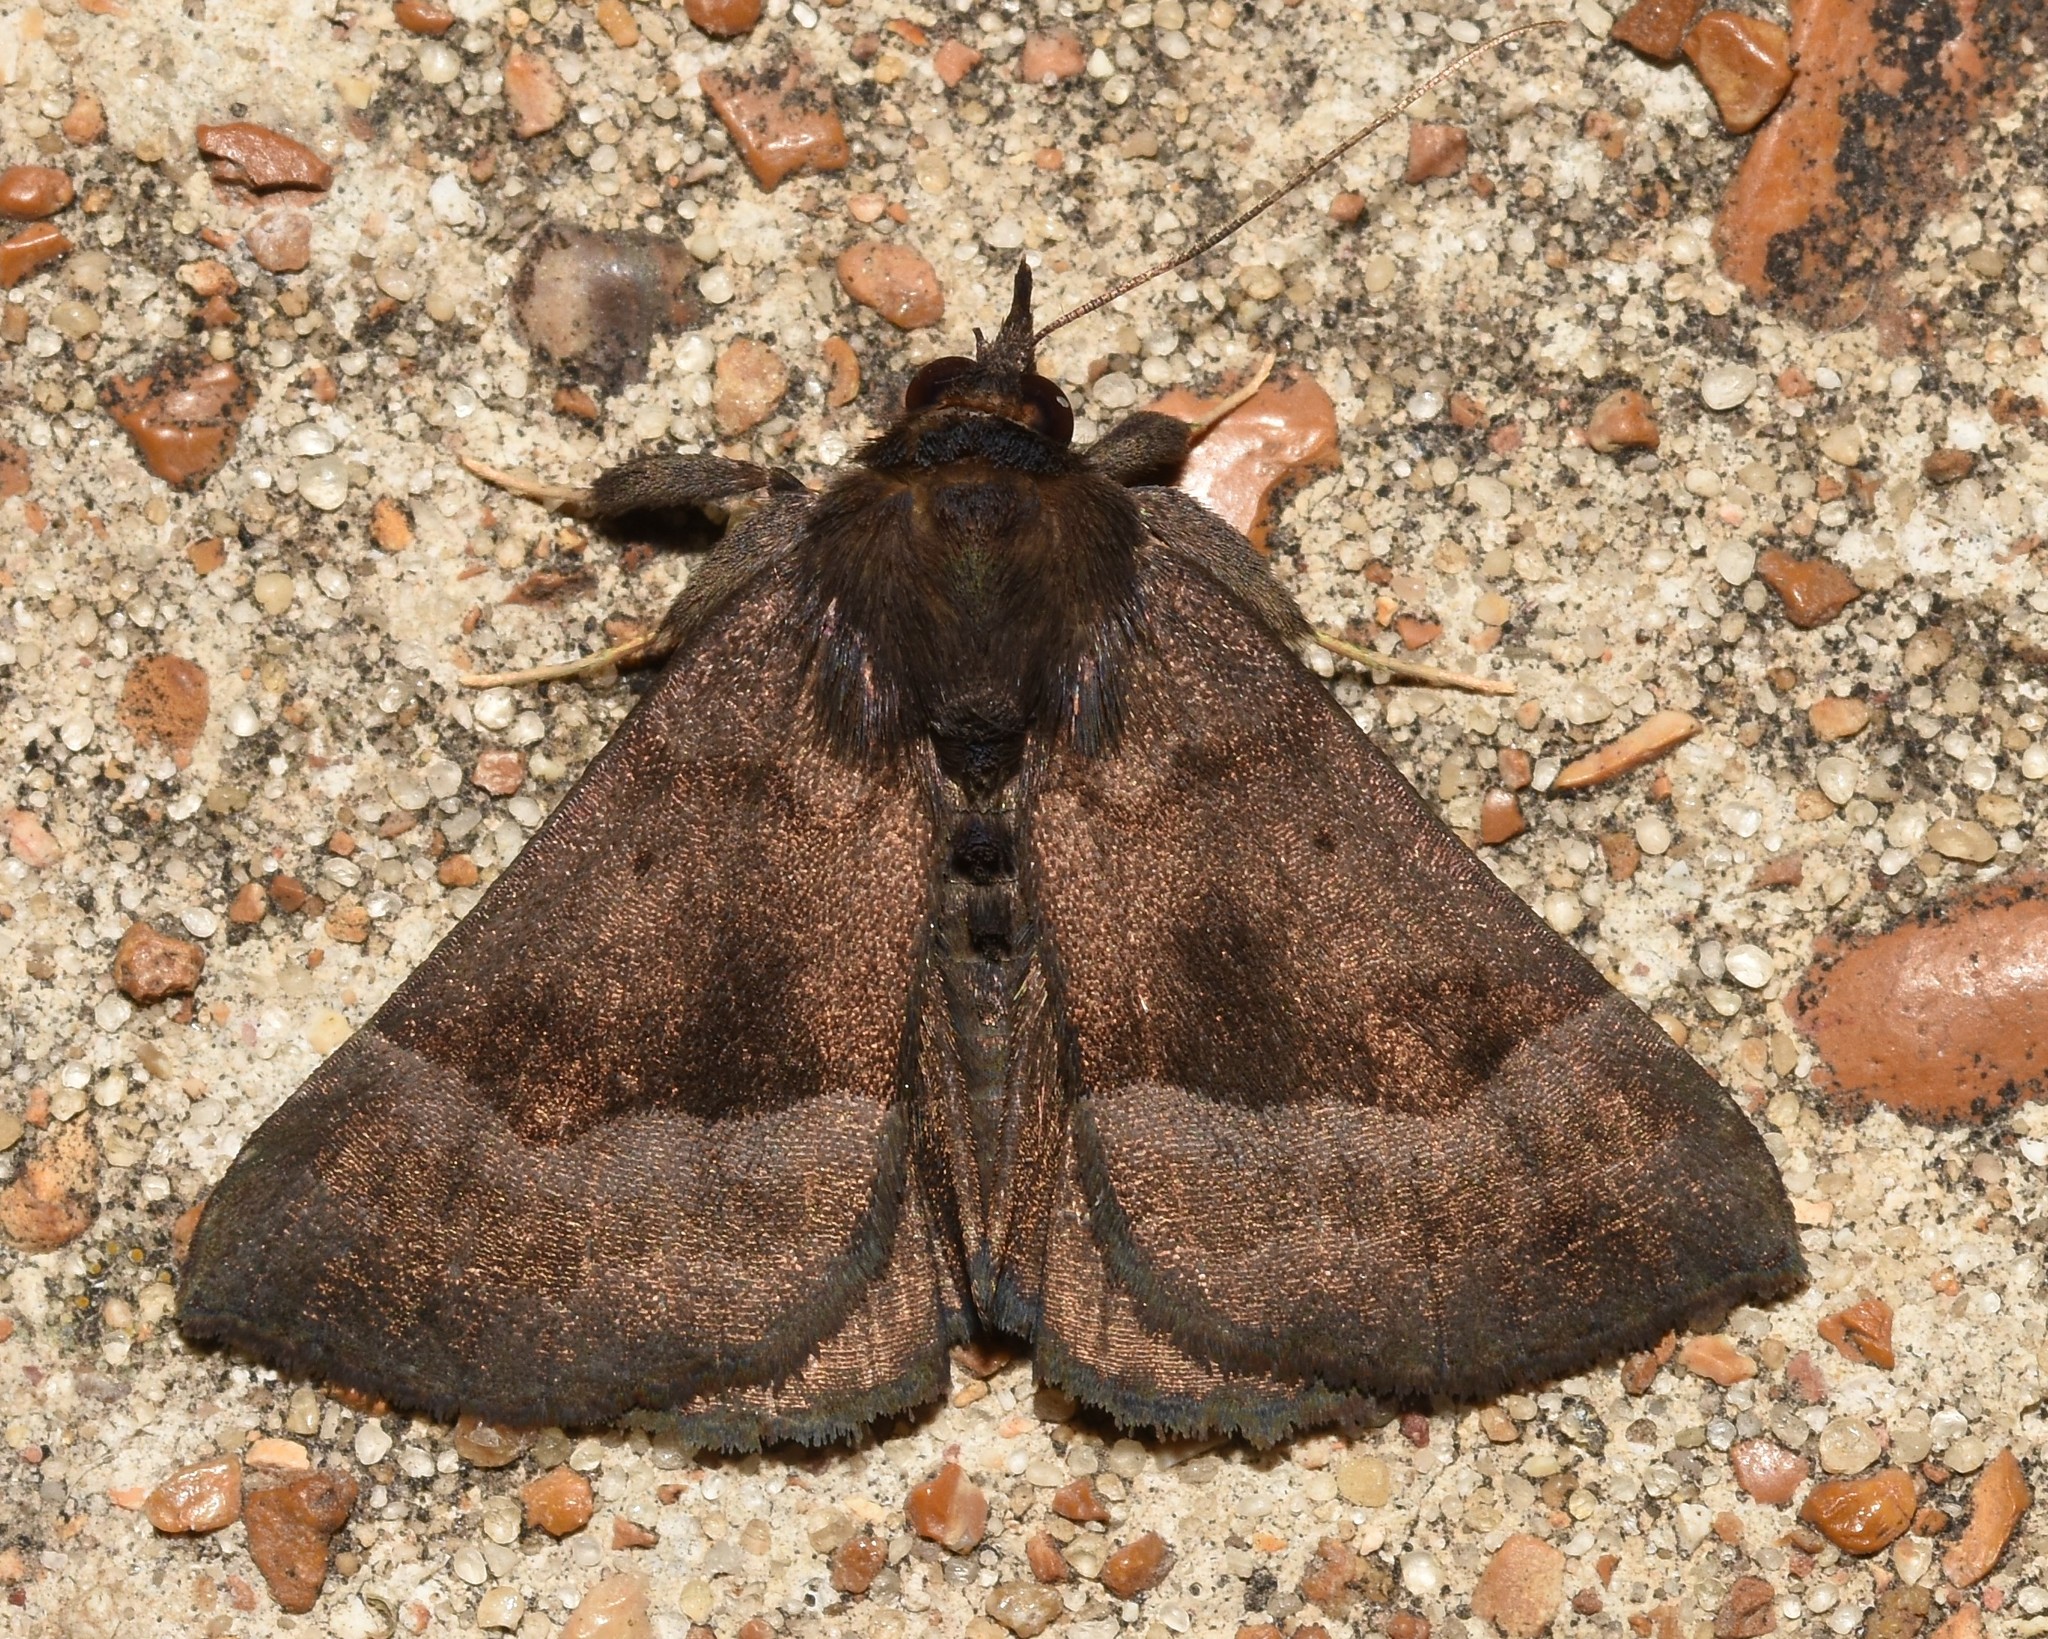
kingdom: Animalia
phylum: Arthropoda
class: Insecta
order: Lepidoptera
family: Erebidae
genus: Hypena
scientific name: Hypena madefactalis
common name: Gray-edged snout
